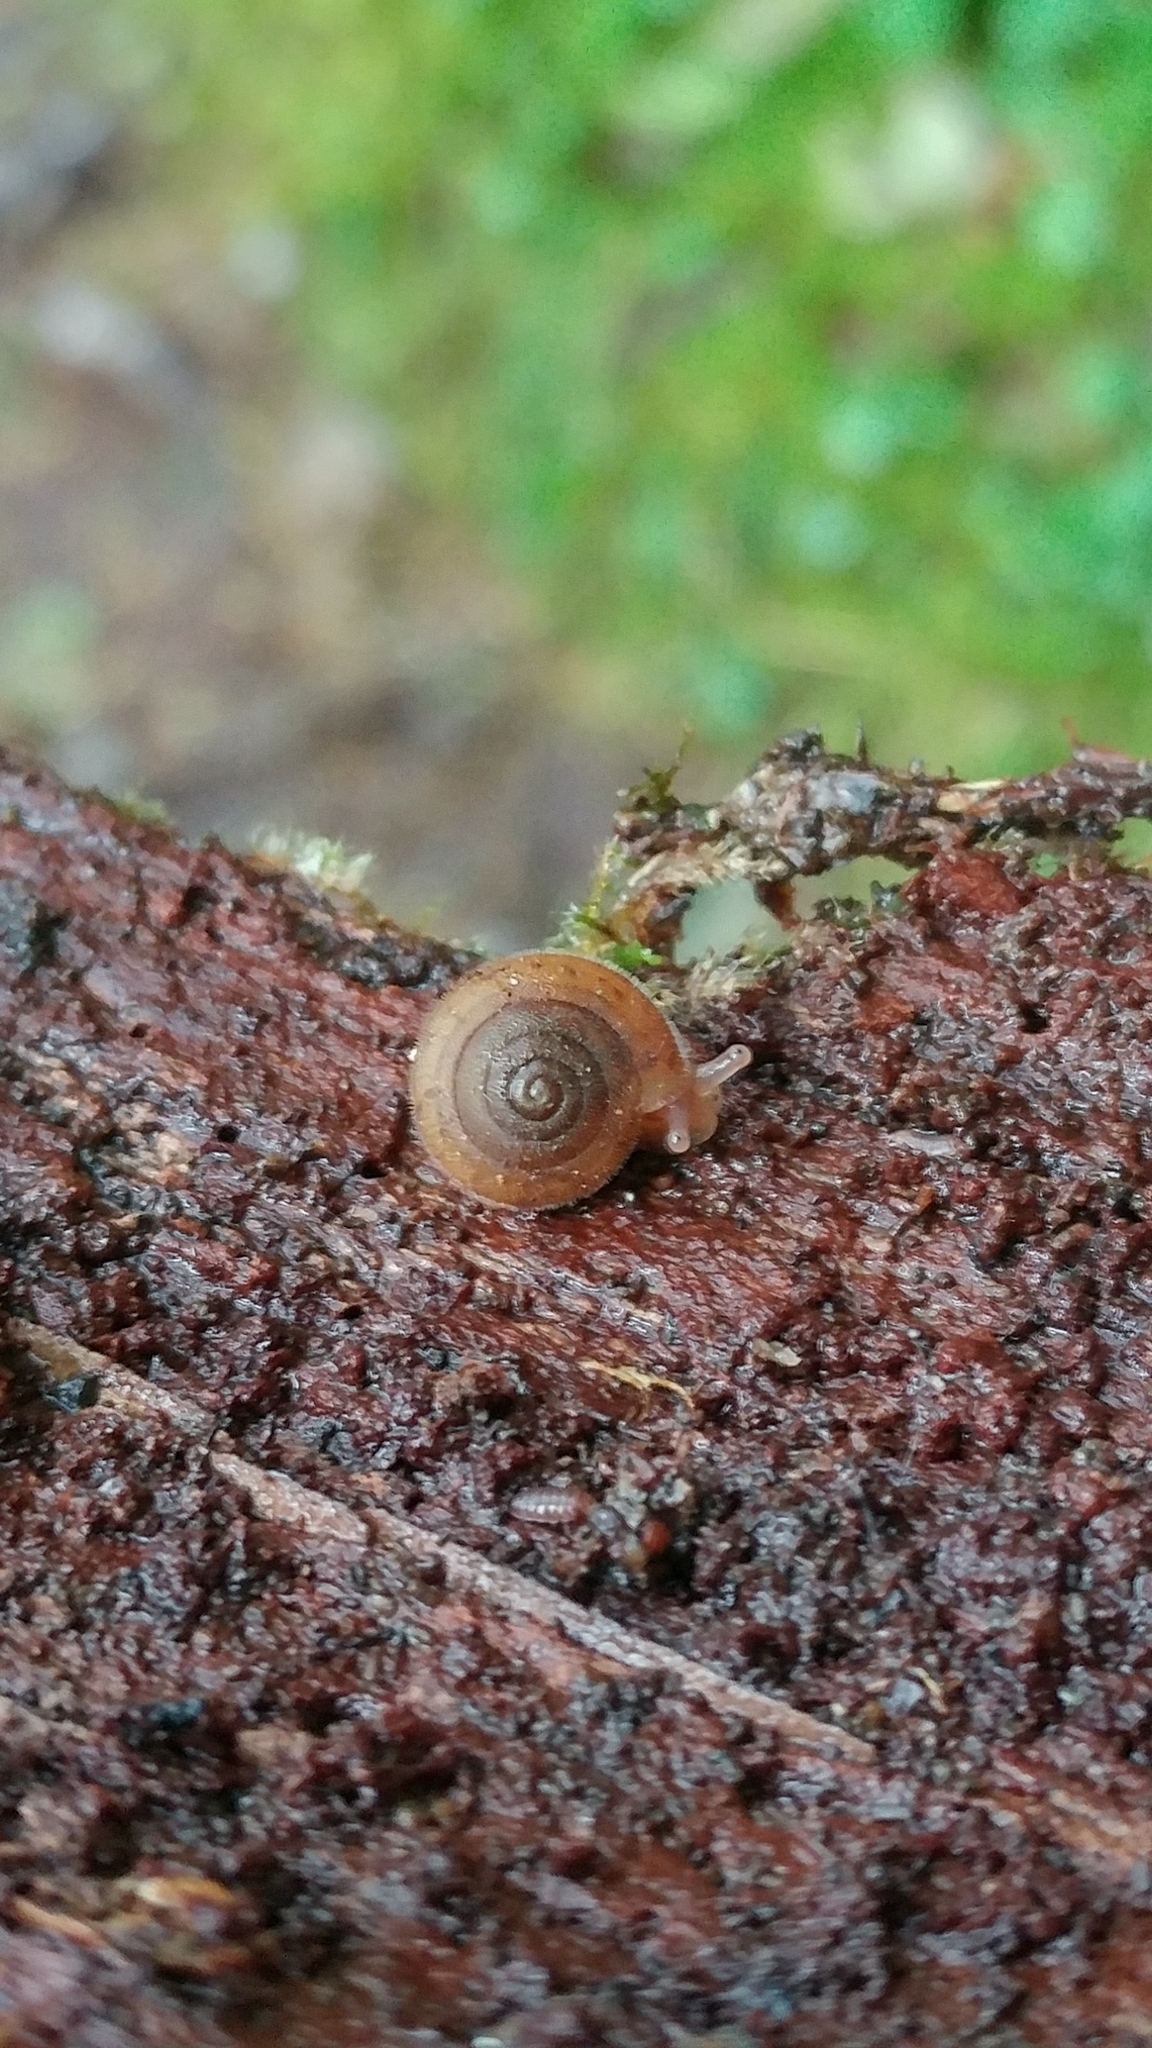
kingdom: Animalia
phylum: Mollusca
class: Gastropoda
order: Stylommatophora
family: Polygyridae
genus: Vespericola
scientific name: Vespericola columbianus
